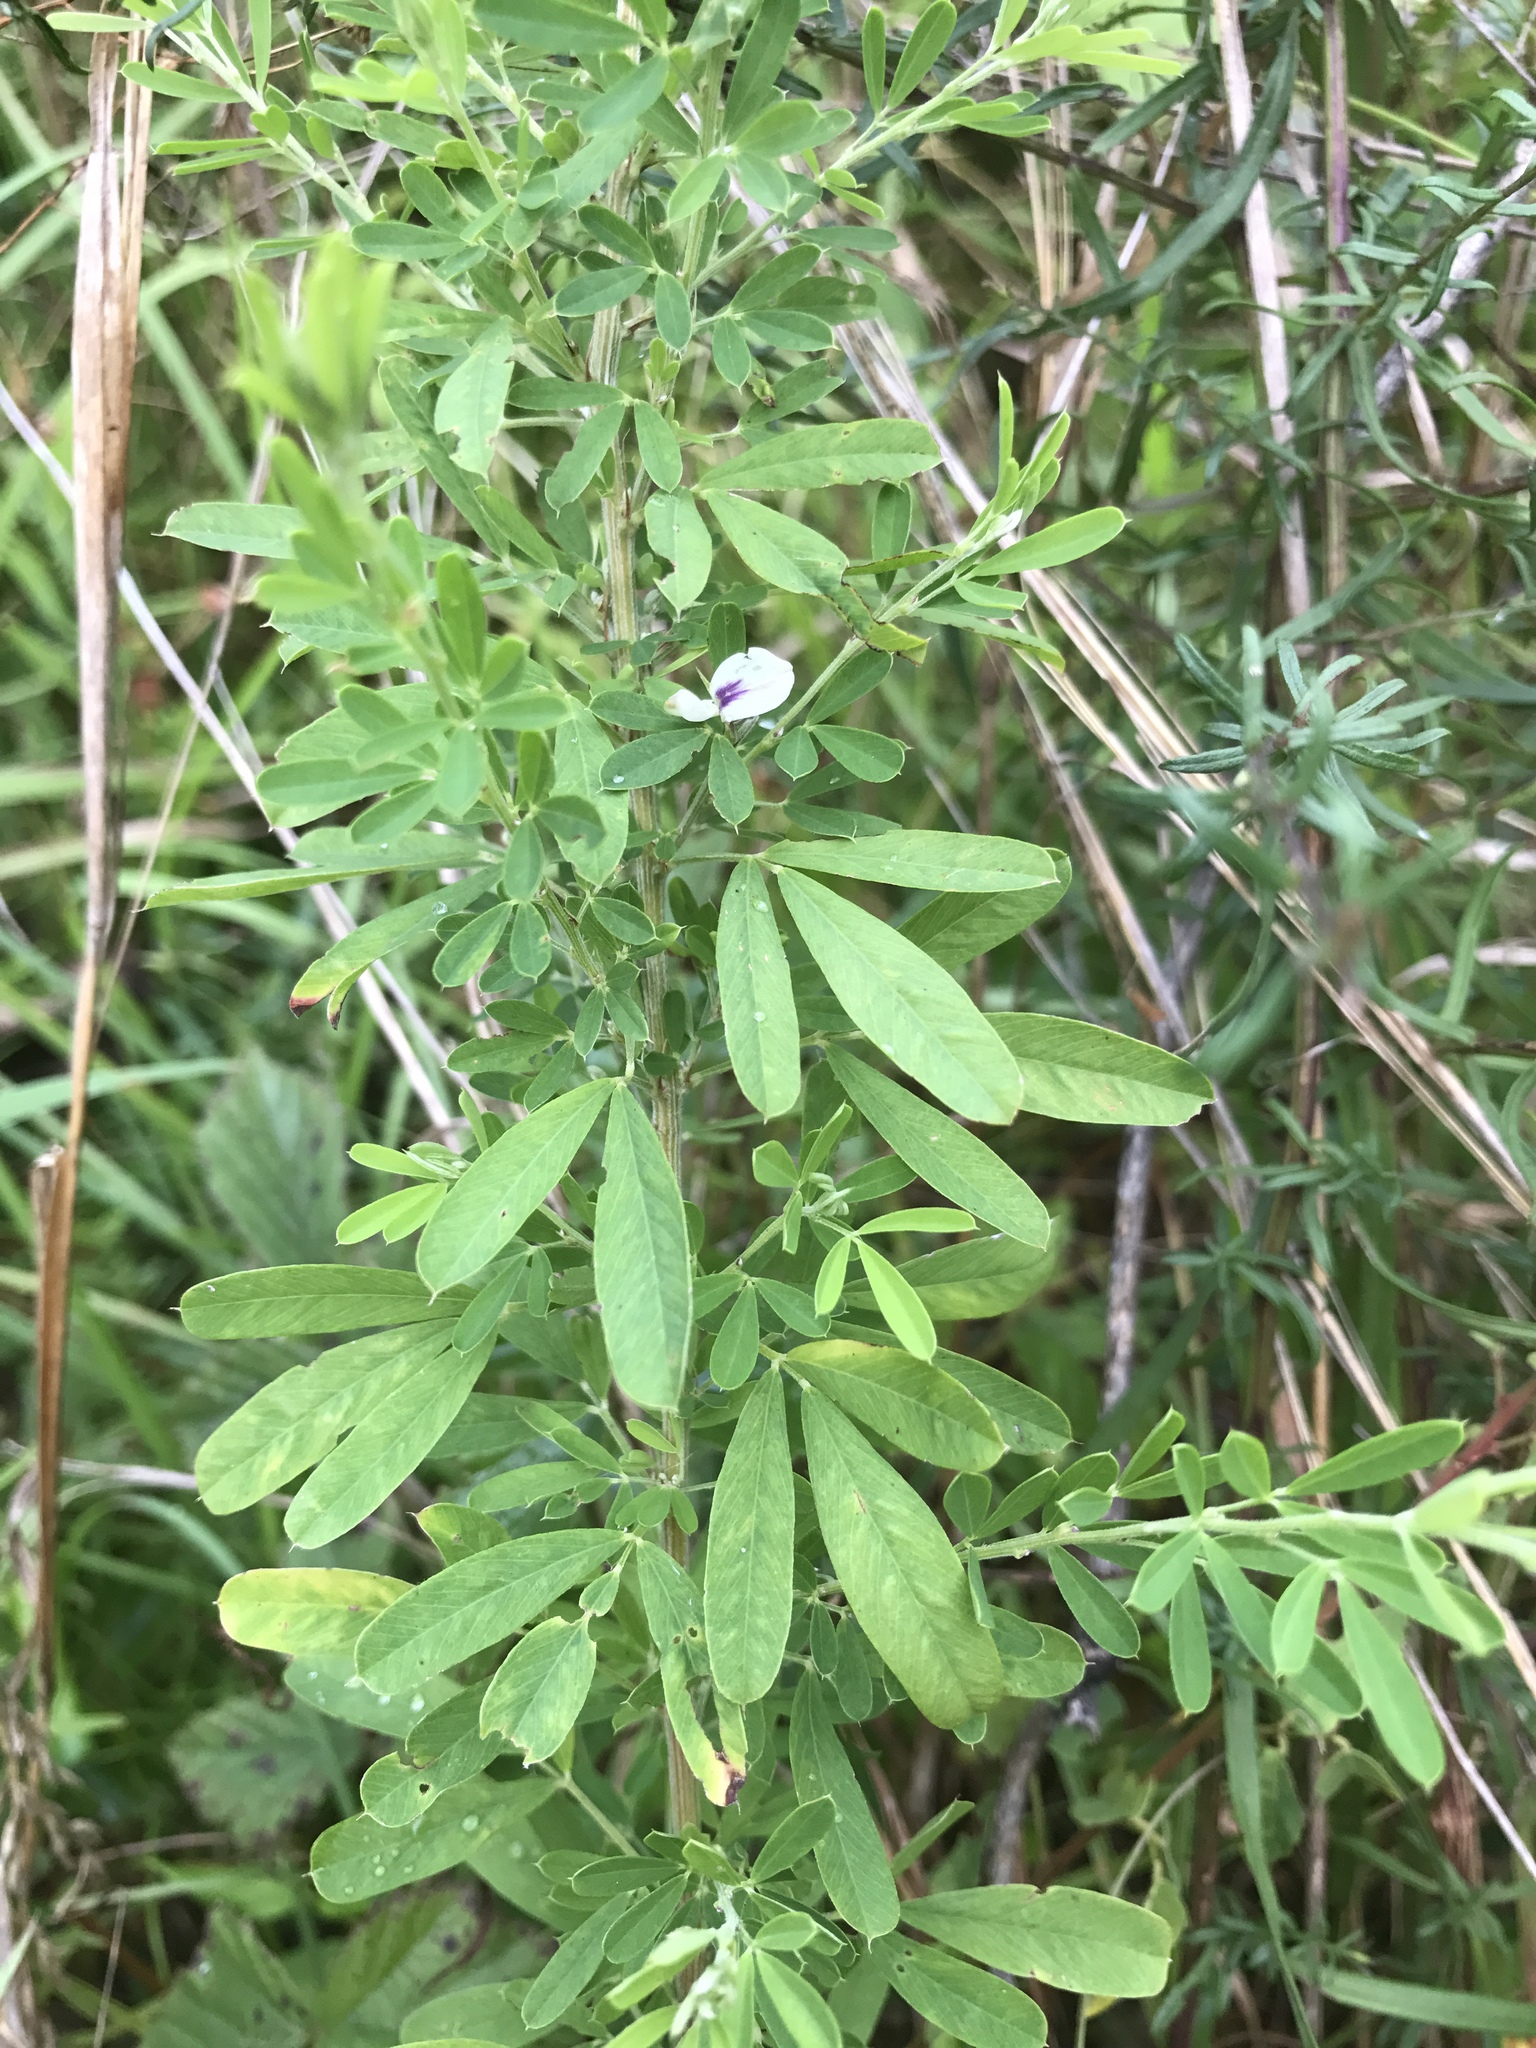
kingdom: Plantae
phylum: Tracheophyta
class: Magnoliopsida
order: Fabales
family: Fabaceae
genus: Lespedeza
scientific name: Lespedeza cuneata
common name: Chinese bush-clover
